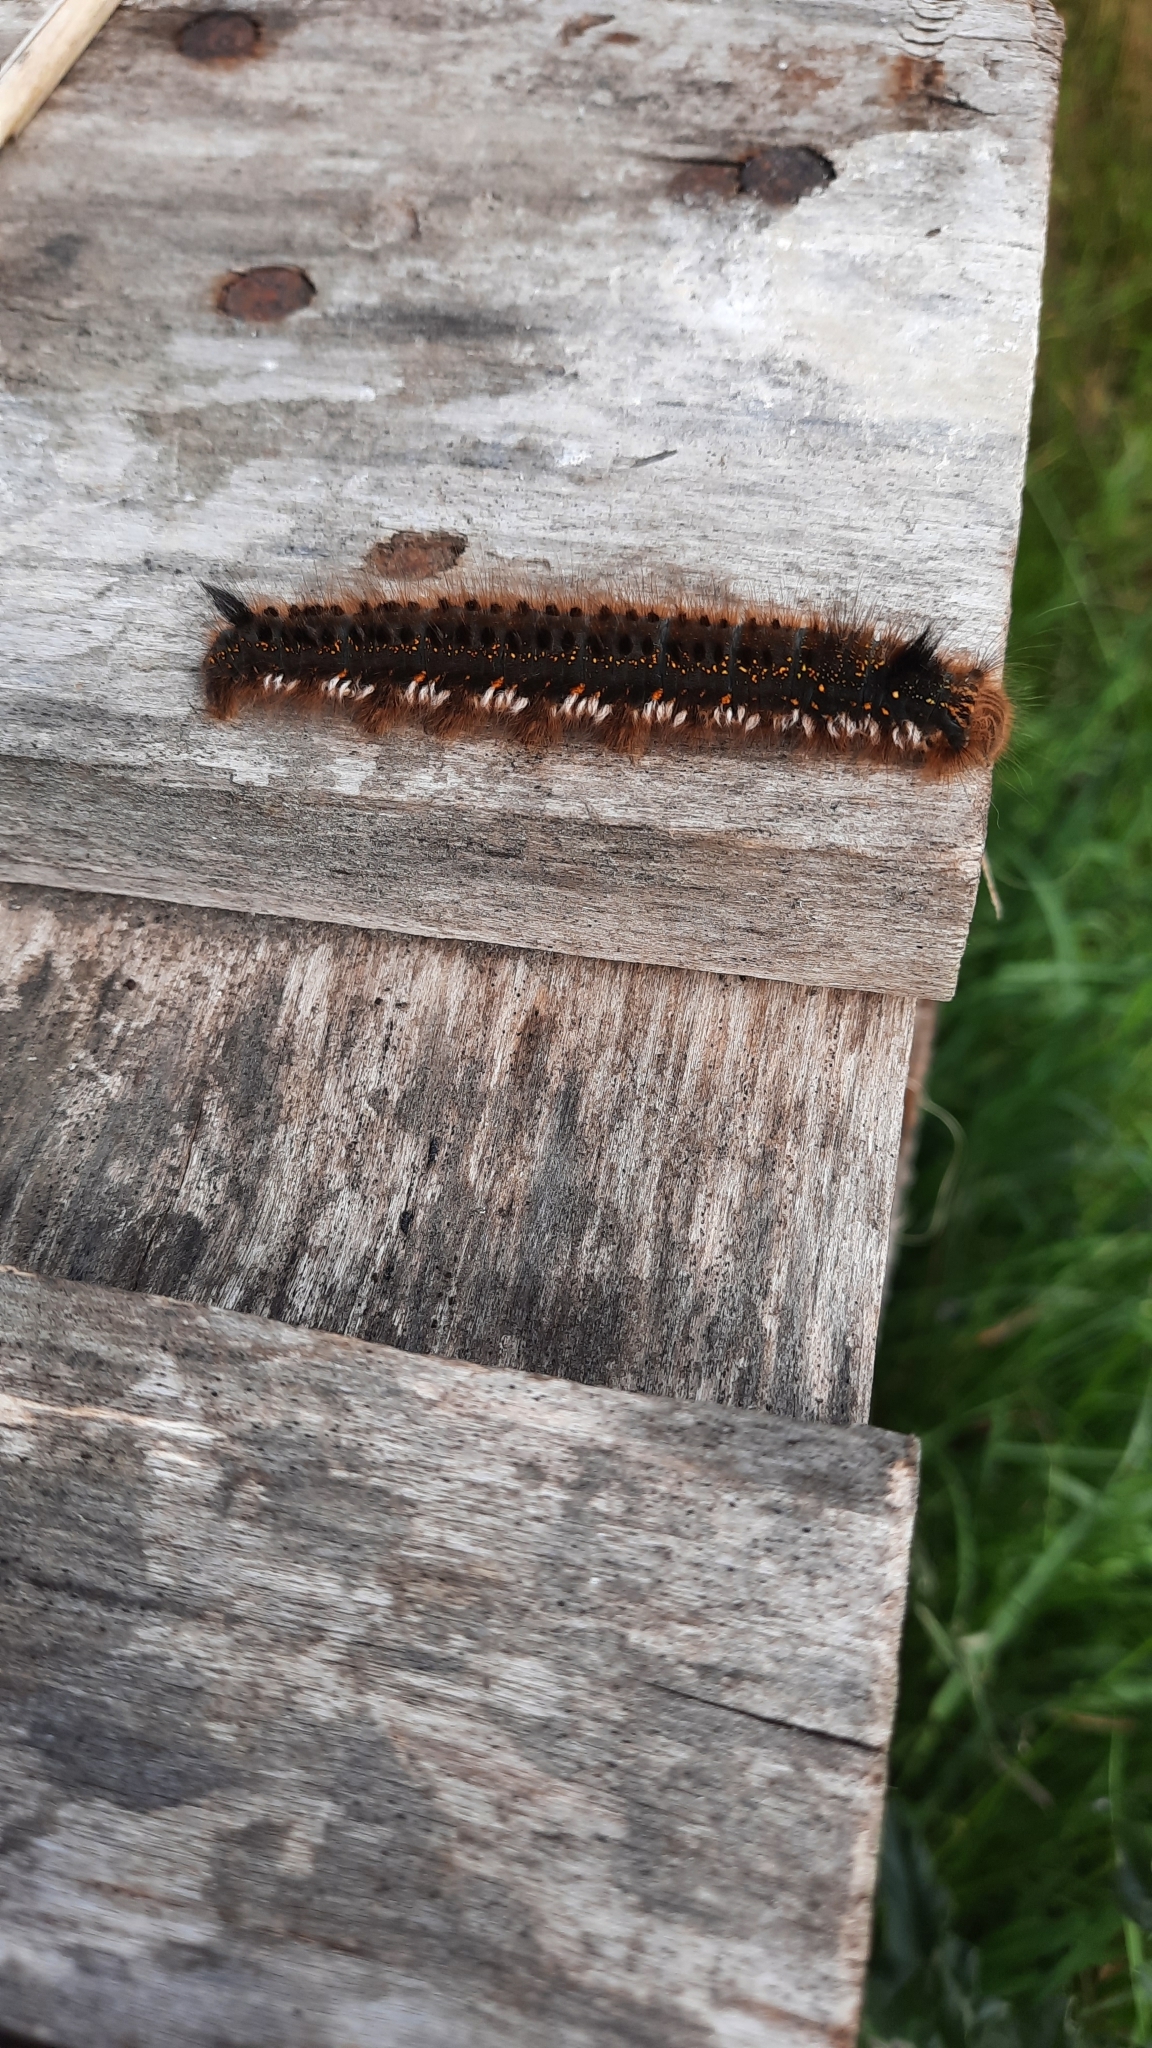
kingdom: Animalia
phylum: Arthropoda
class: Insecta
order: Lepidoptera
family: Lasiocampidae
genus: Euthrix
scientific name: Euthrix potatoria
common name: Drinker
